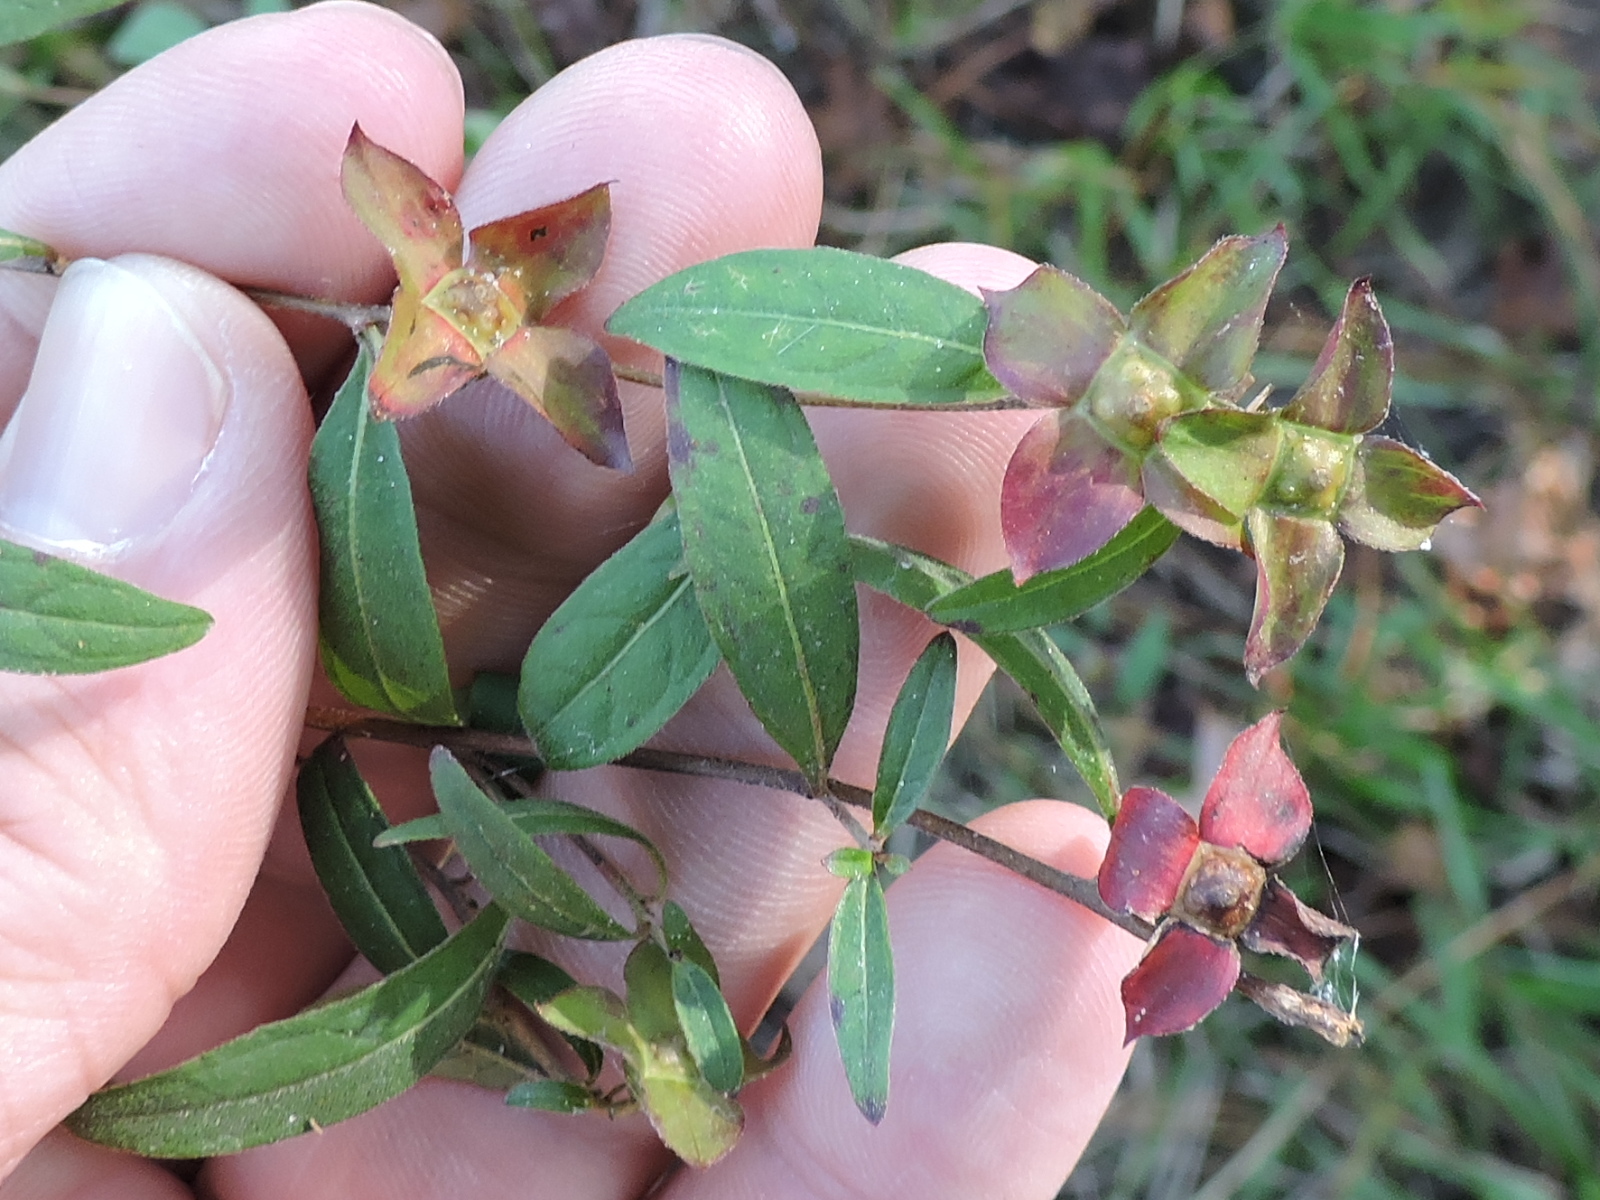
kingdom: Plantae
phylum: Tracheophyta
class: Magnoliopsida
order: Myrtales
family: Onagraceae
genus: Ludwigia
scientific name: Ludwigia alternifolia
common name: Rattlebox
